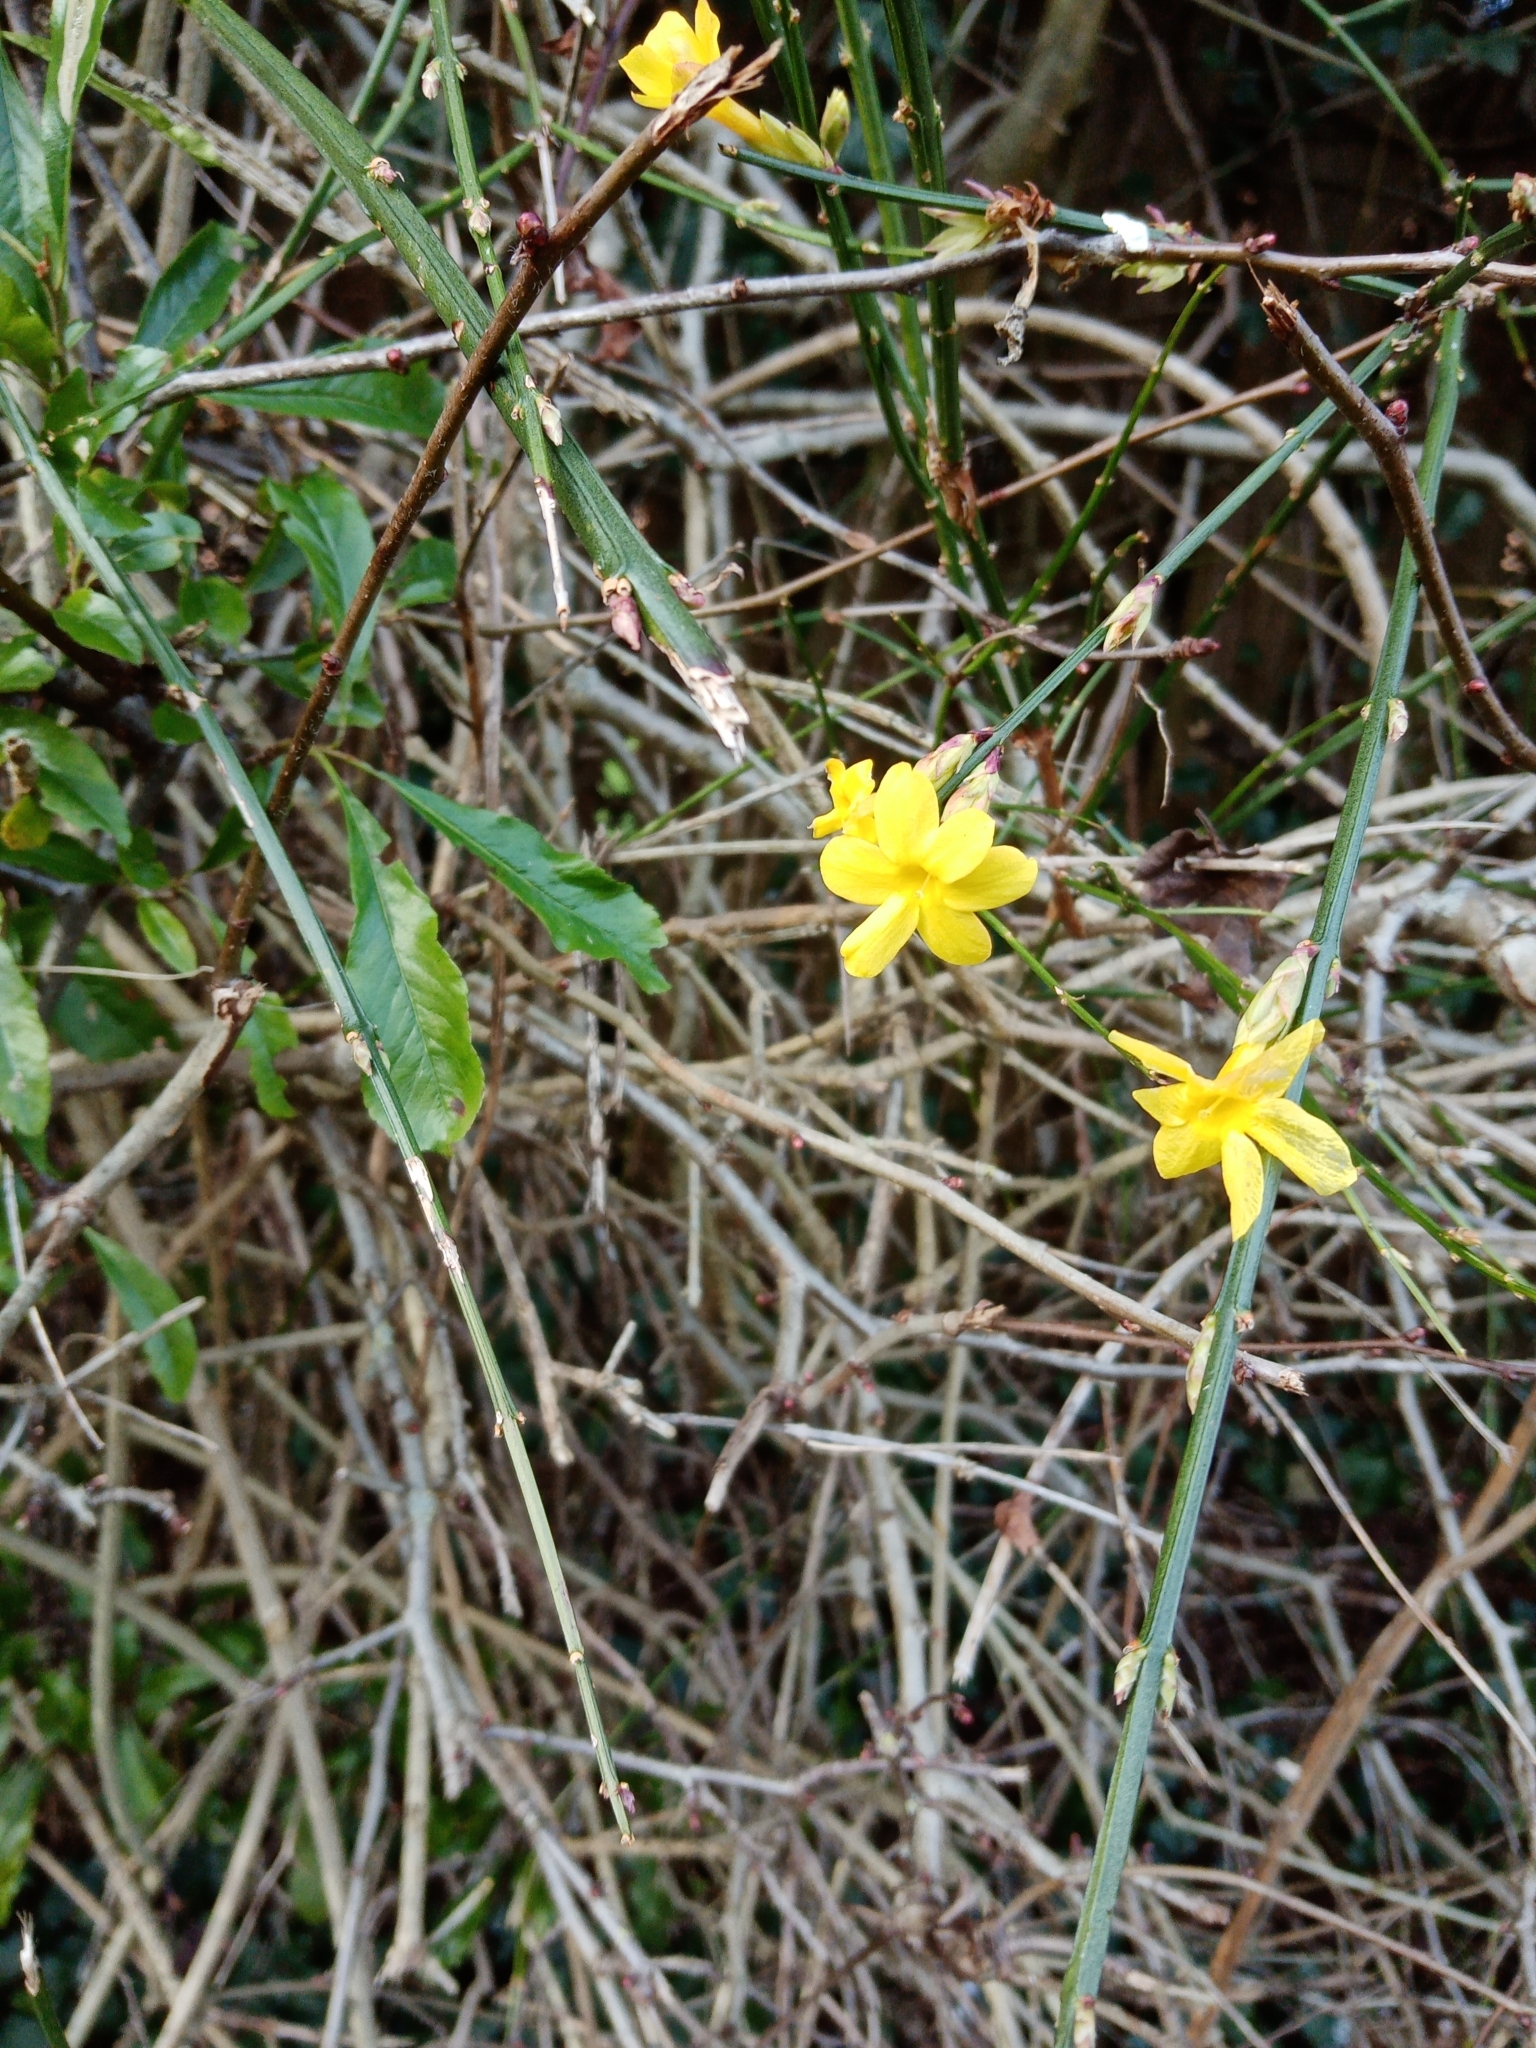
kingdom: Plantae
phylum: Tracheophyta
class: Magnoliopsida
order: Lamiales
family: Oleaceae
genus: Jasminum
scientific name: Jasminum nudiflorum
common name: Winter jasmine
